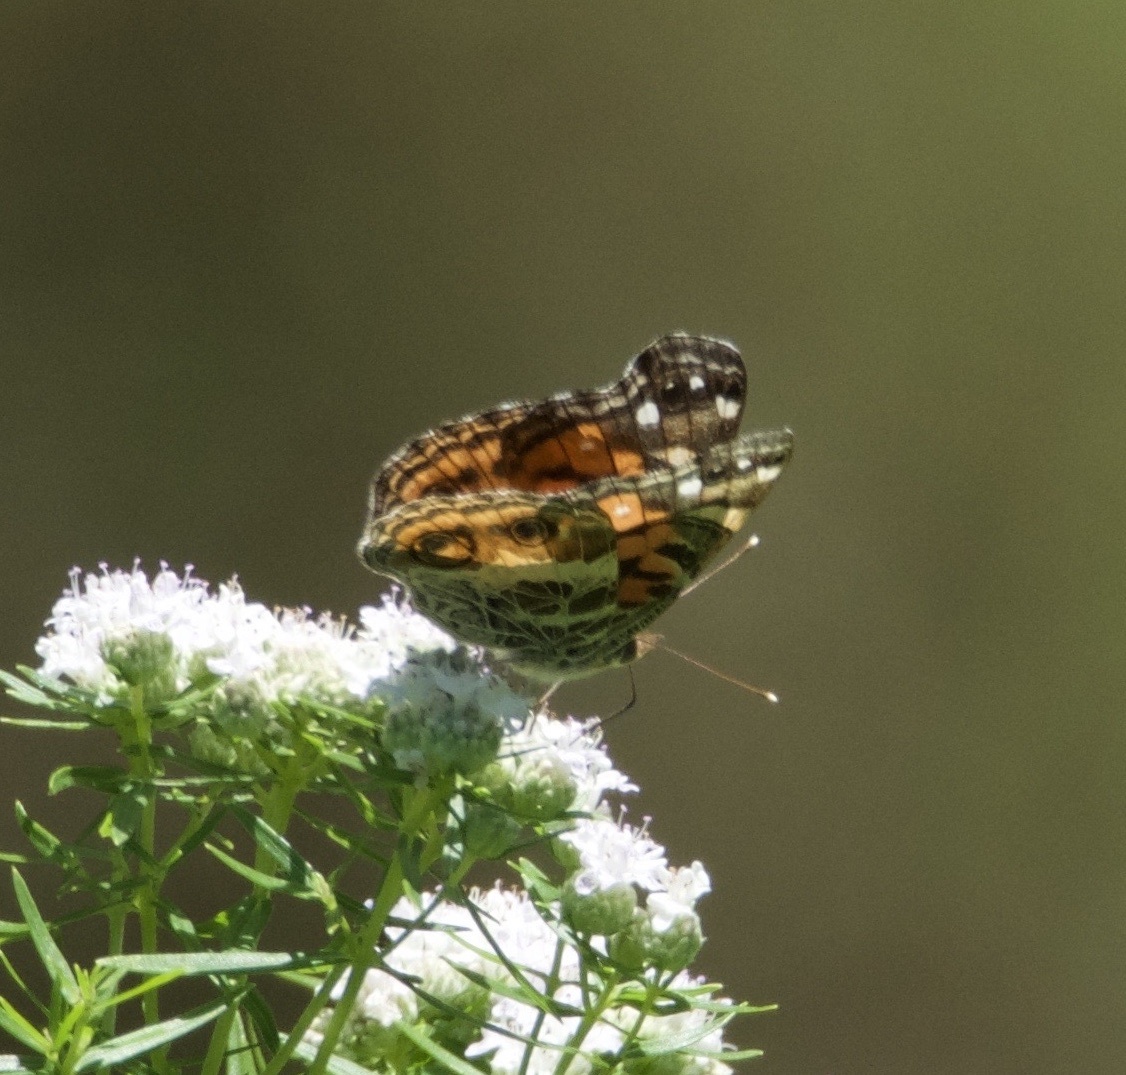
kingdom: Animalia
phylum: Arthropoda
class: Insecta
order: Lepidoptera
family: Nymphalidae
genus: Vanessa
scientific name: Vanessa virginiensis
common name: American lady
